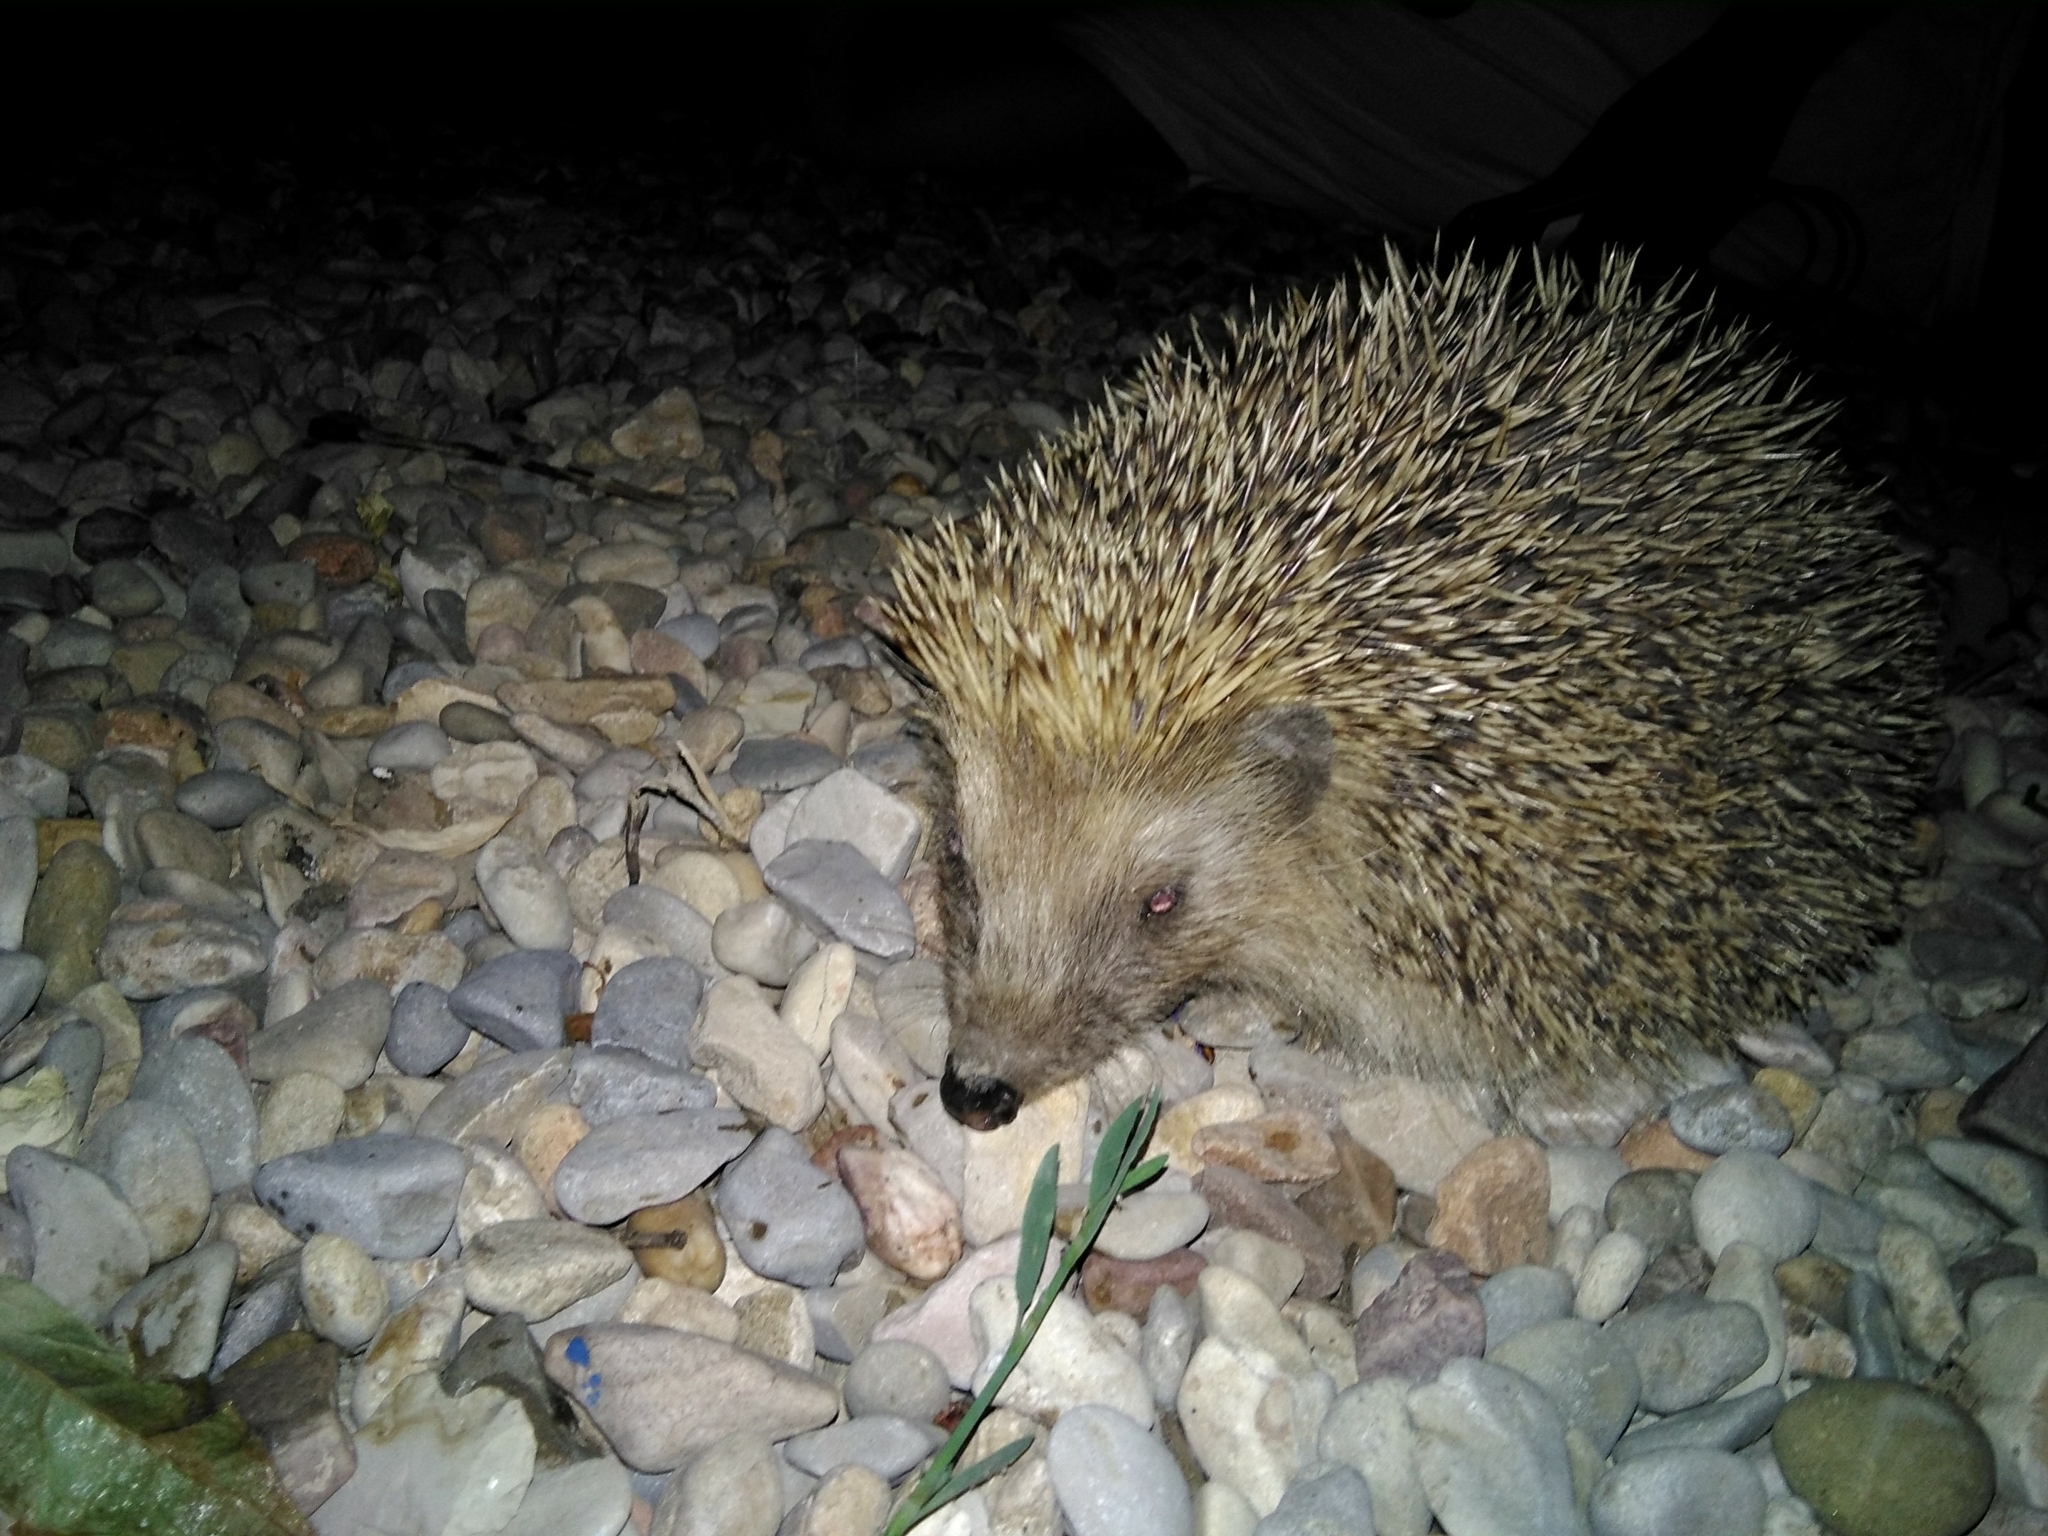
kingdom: Animalia
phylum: Chordata
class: Mammalia
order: Erinaceomorpha
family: Erinaceidae
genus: Erinaceus
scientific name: Erinaceus europaeus
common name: West european hedgehog
